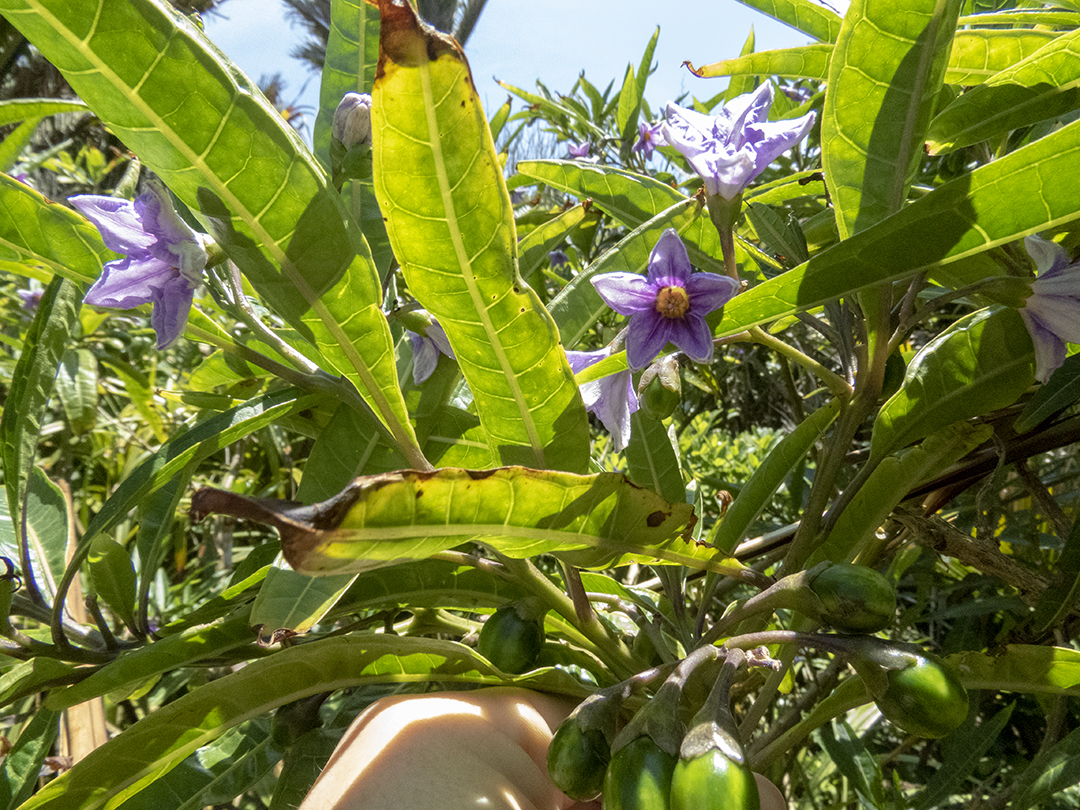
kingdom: Plantae
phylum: Tracheophyta
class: Magnoliopsida
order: Solanales
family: Solanaceae
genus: Solanum
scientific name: Solanum aviculare
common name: New zealand nightshade
